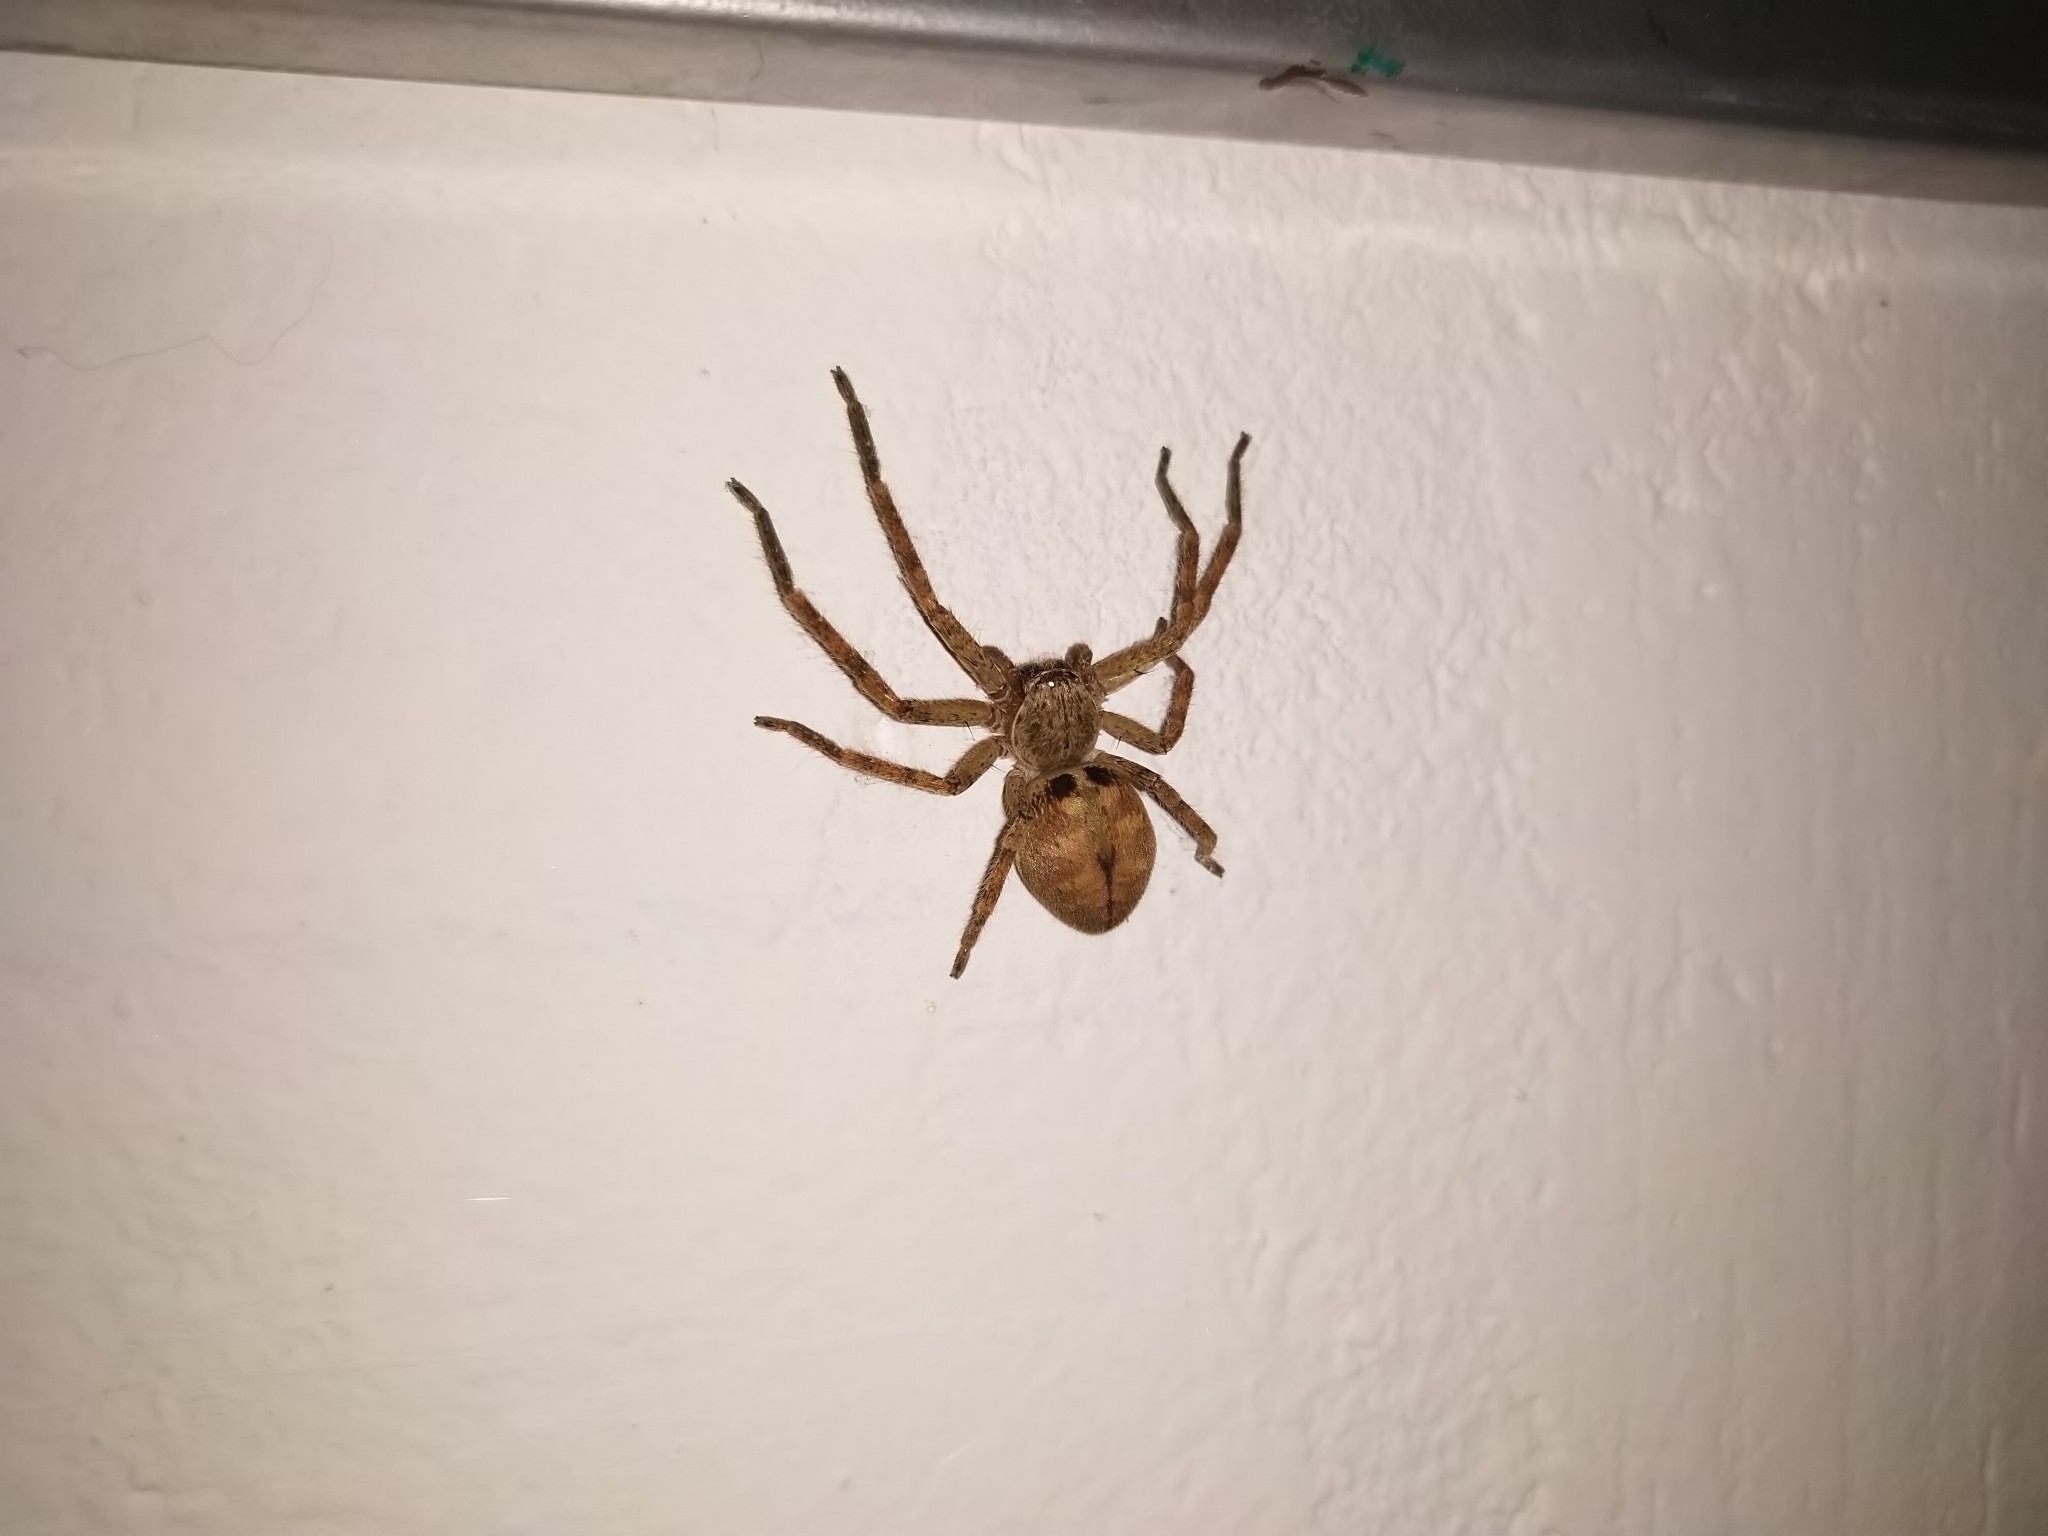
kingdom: Animalia
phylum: Arthropoda
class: Arachnida
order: Araneae
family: Sparassidae
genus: Polybetes
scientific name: Polybetes rapidus
